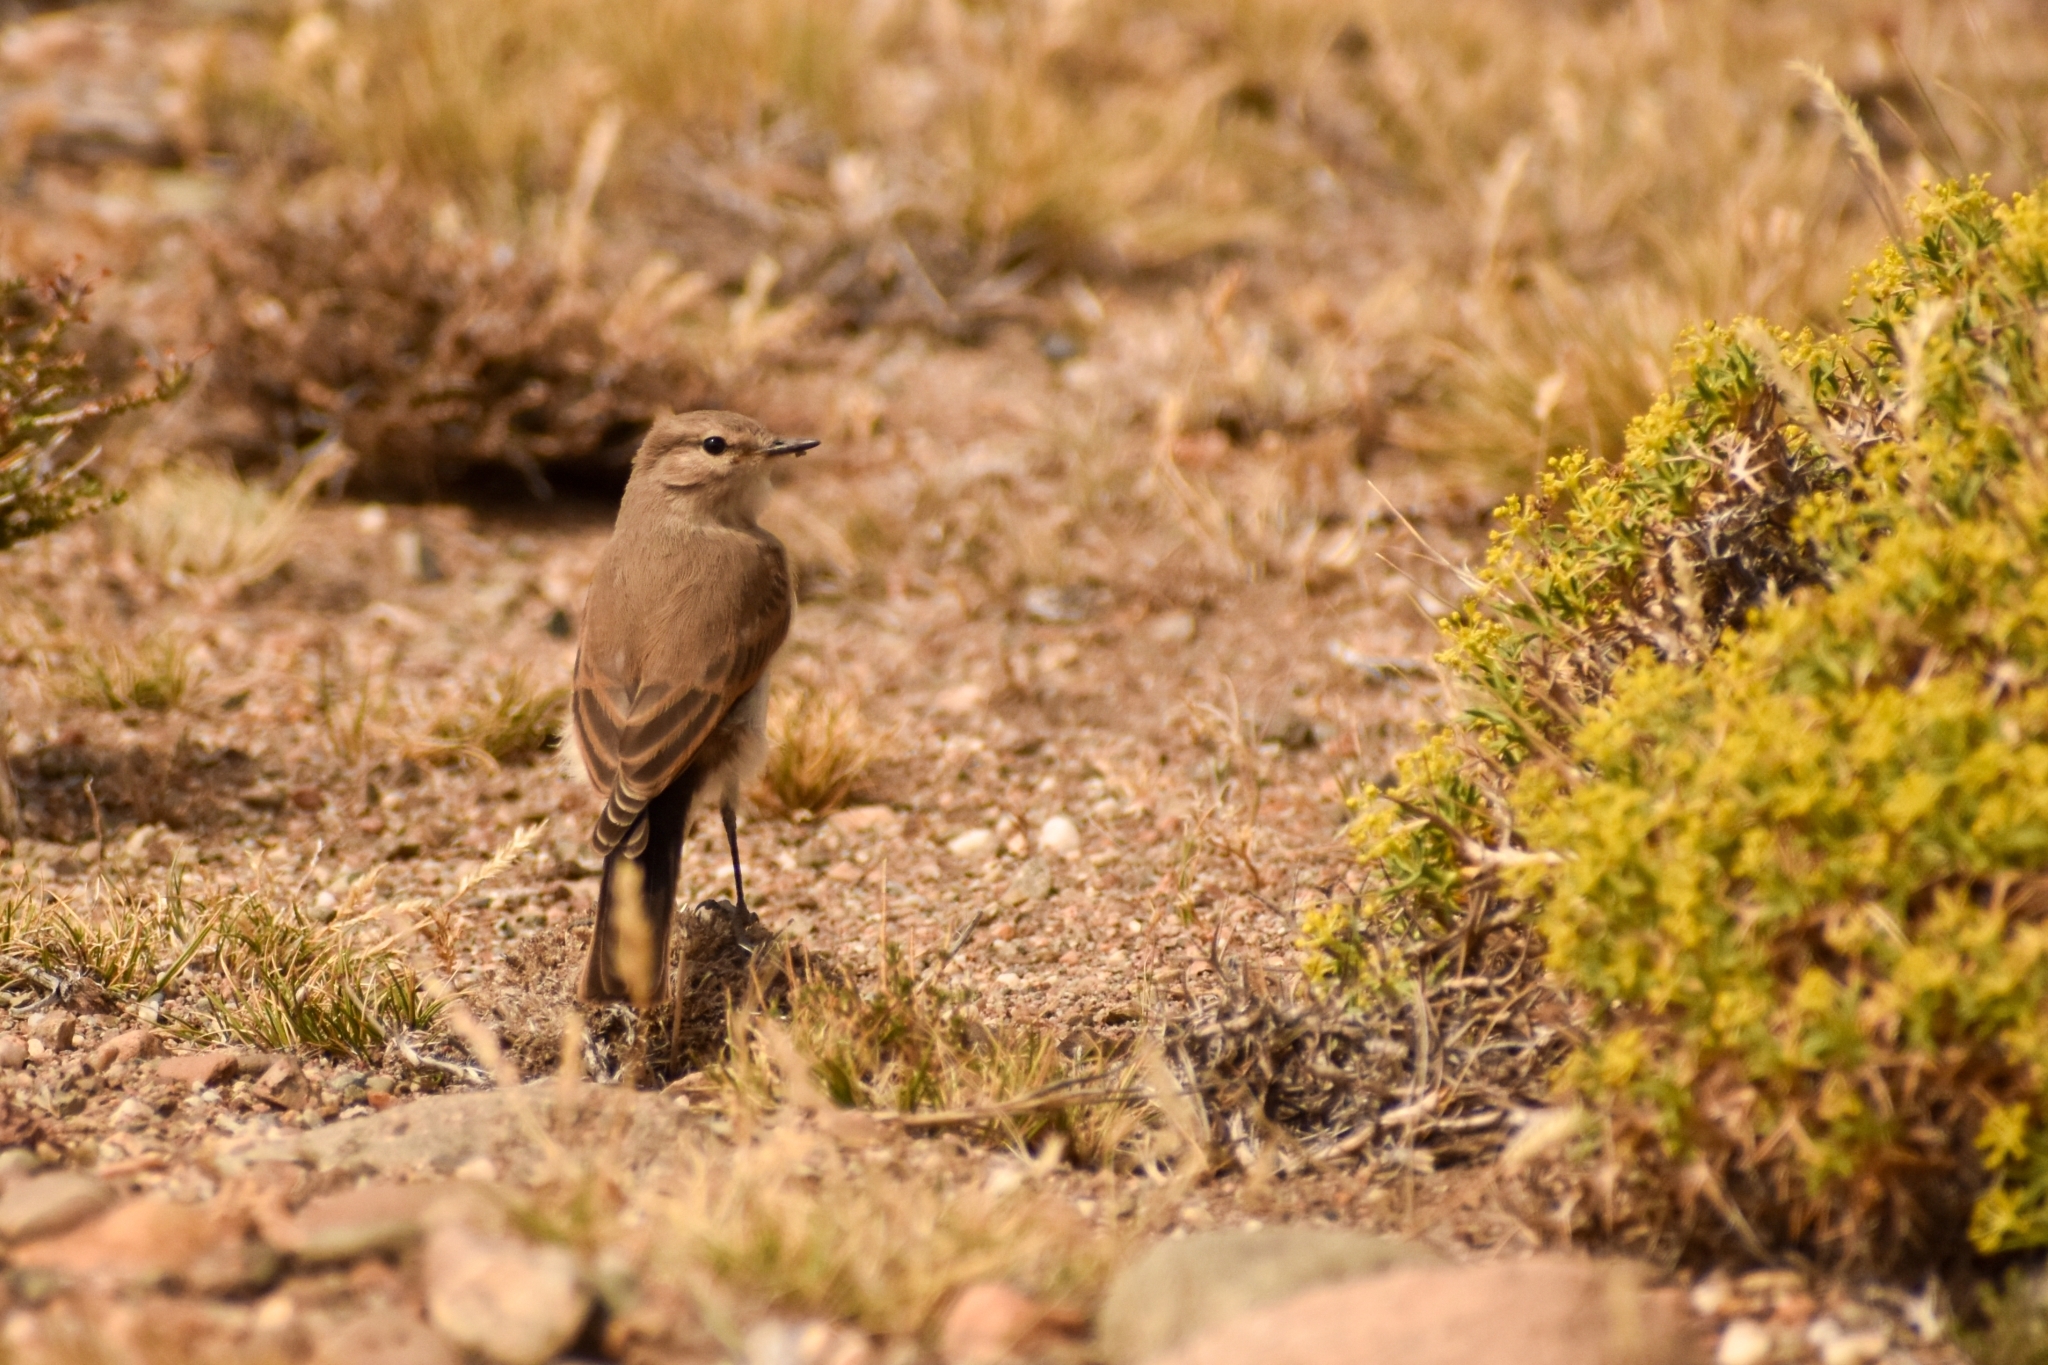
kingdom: Animalia
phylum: Chordata
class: Aves
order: Passeriformes
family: Tyrannidae
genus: Muscisaxicola
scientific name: Muscisaxicola maculirostris
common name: Spot-billed ground tyrant
